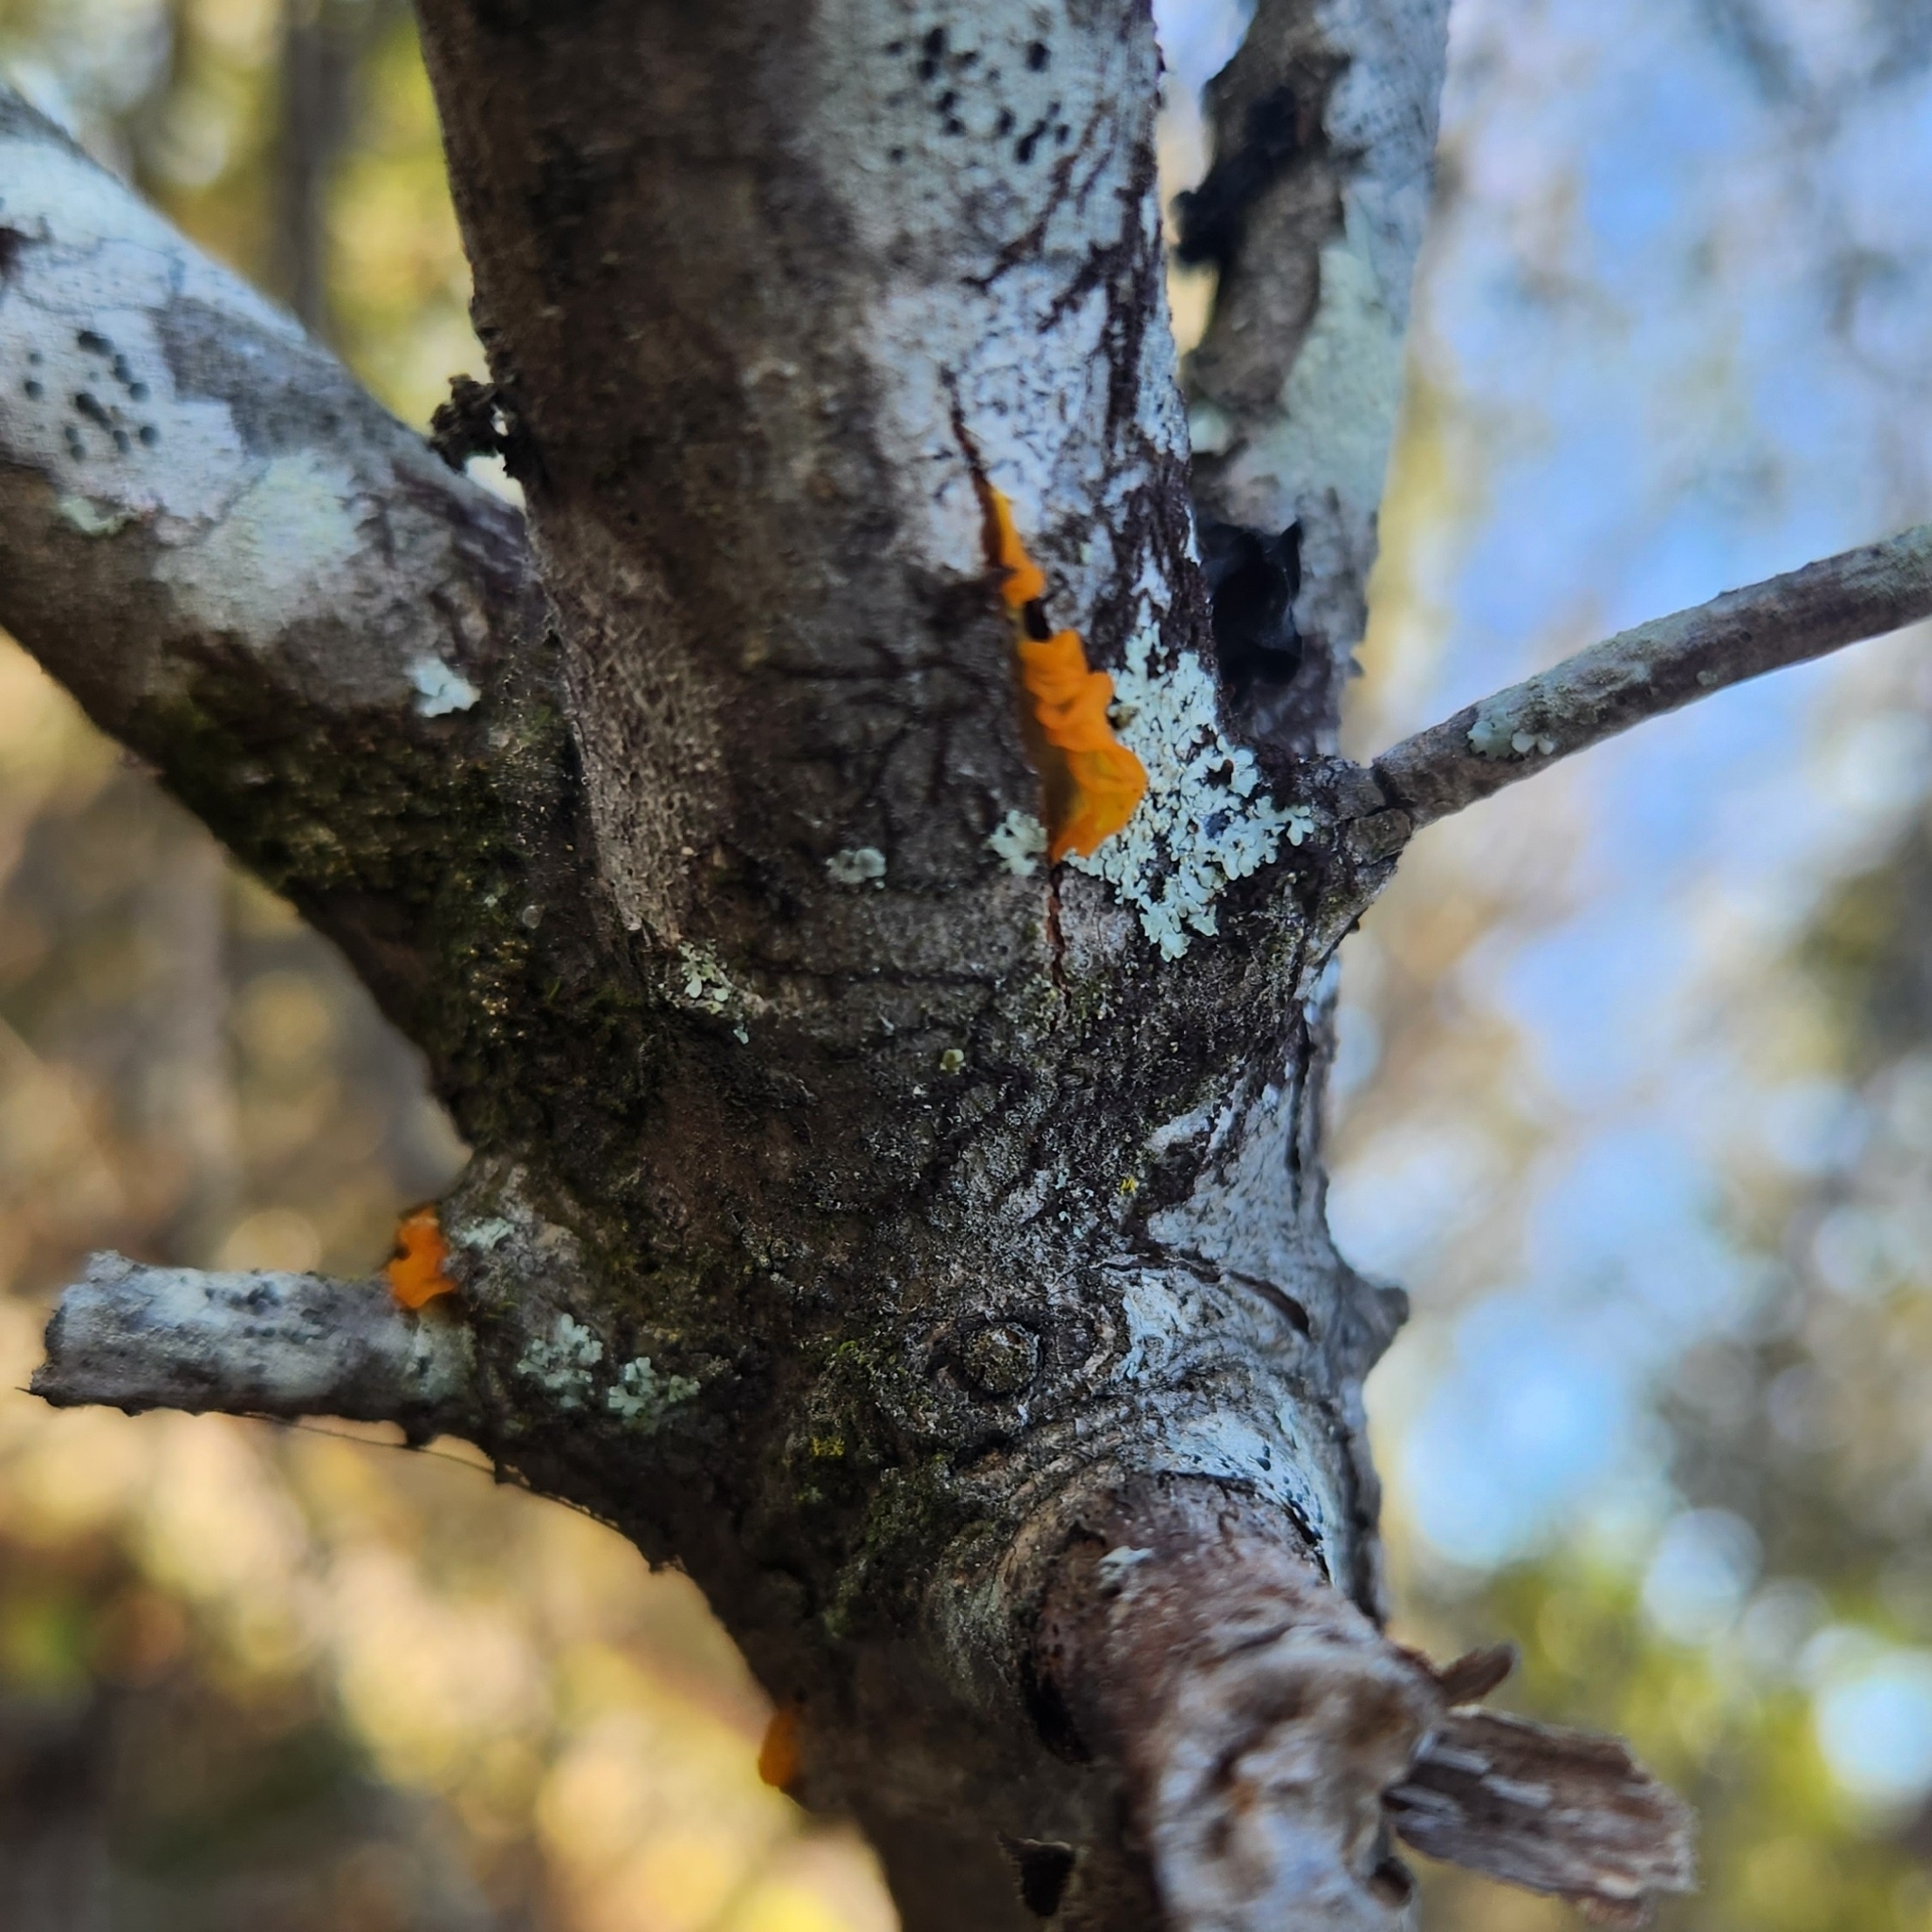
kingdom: Fungi
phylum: Basidiomycota
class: Tremellomycetes
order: Tremellales
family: Tremellaceae
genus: Tremella
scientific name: Tremella mesenterica
